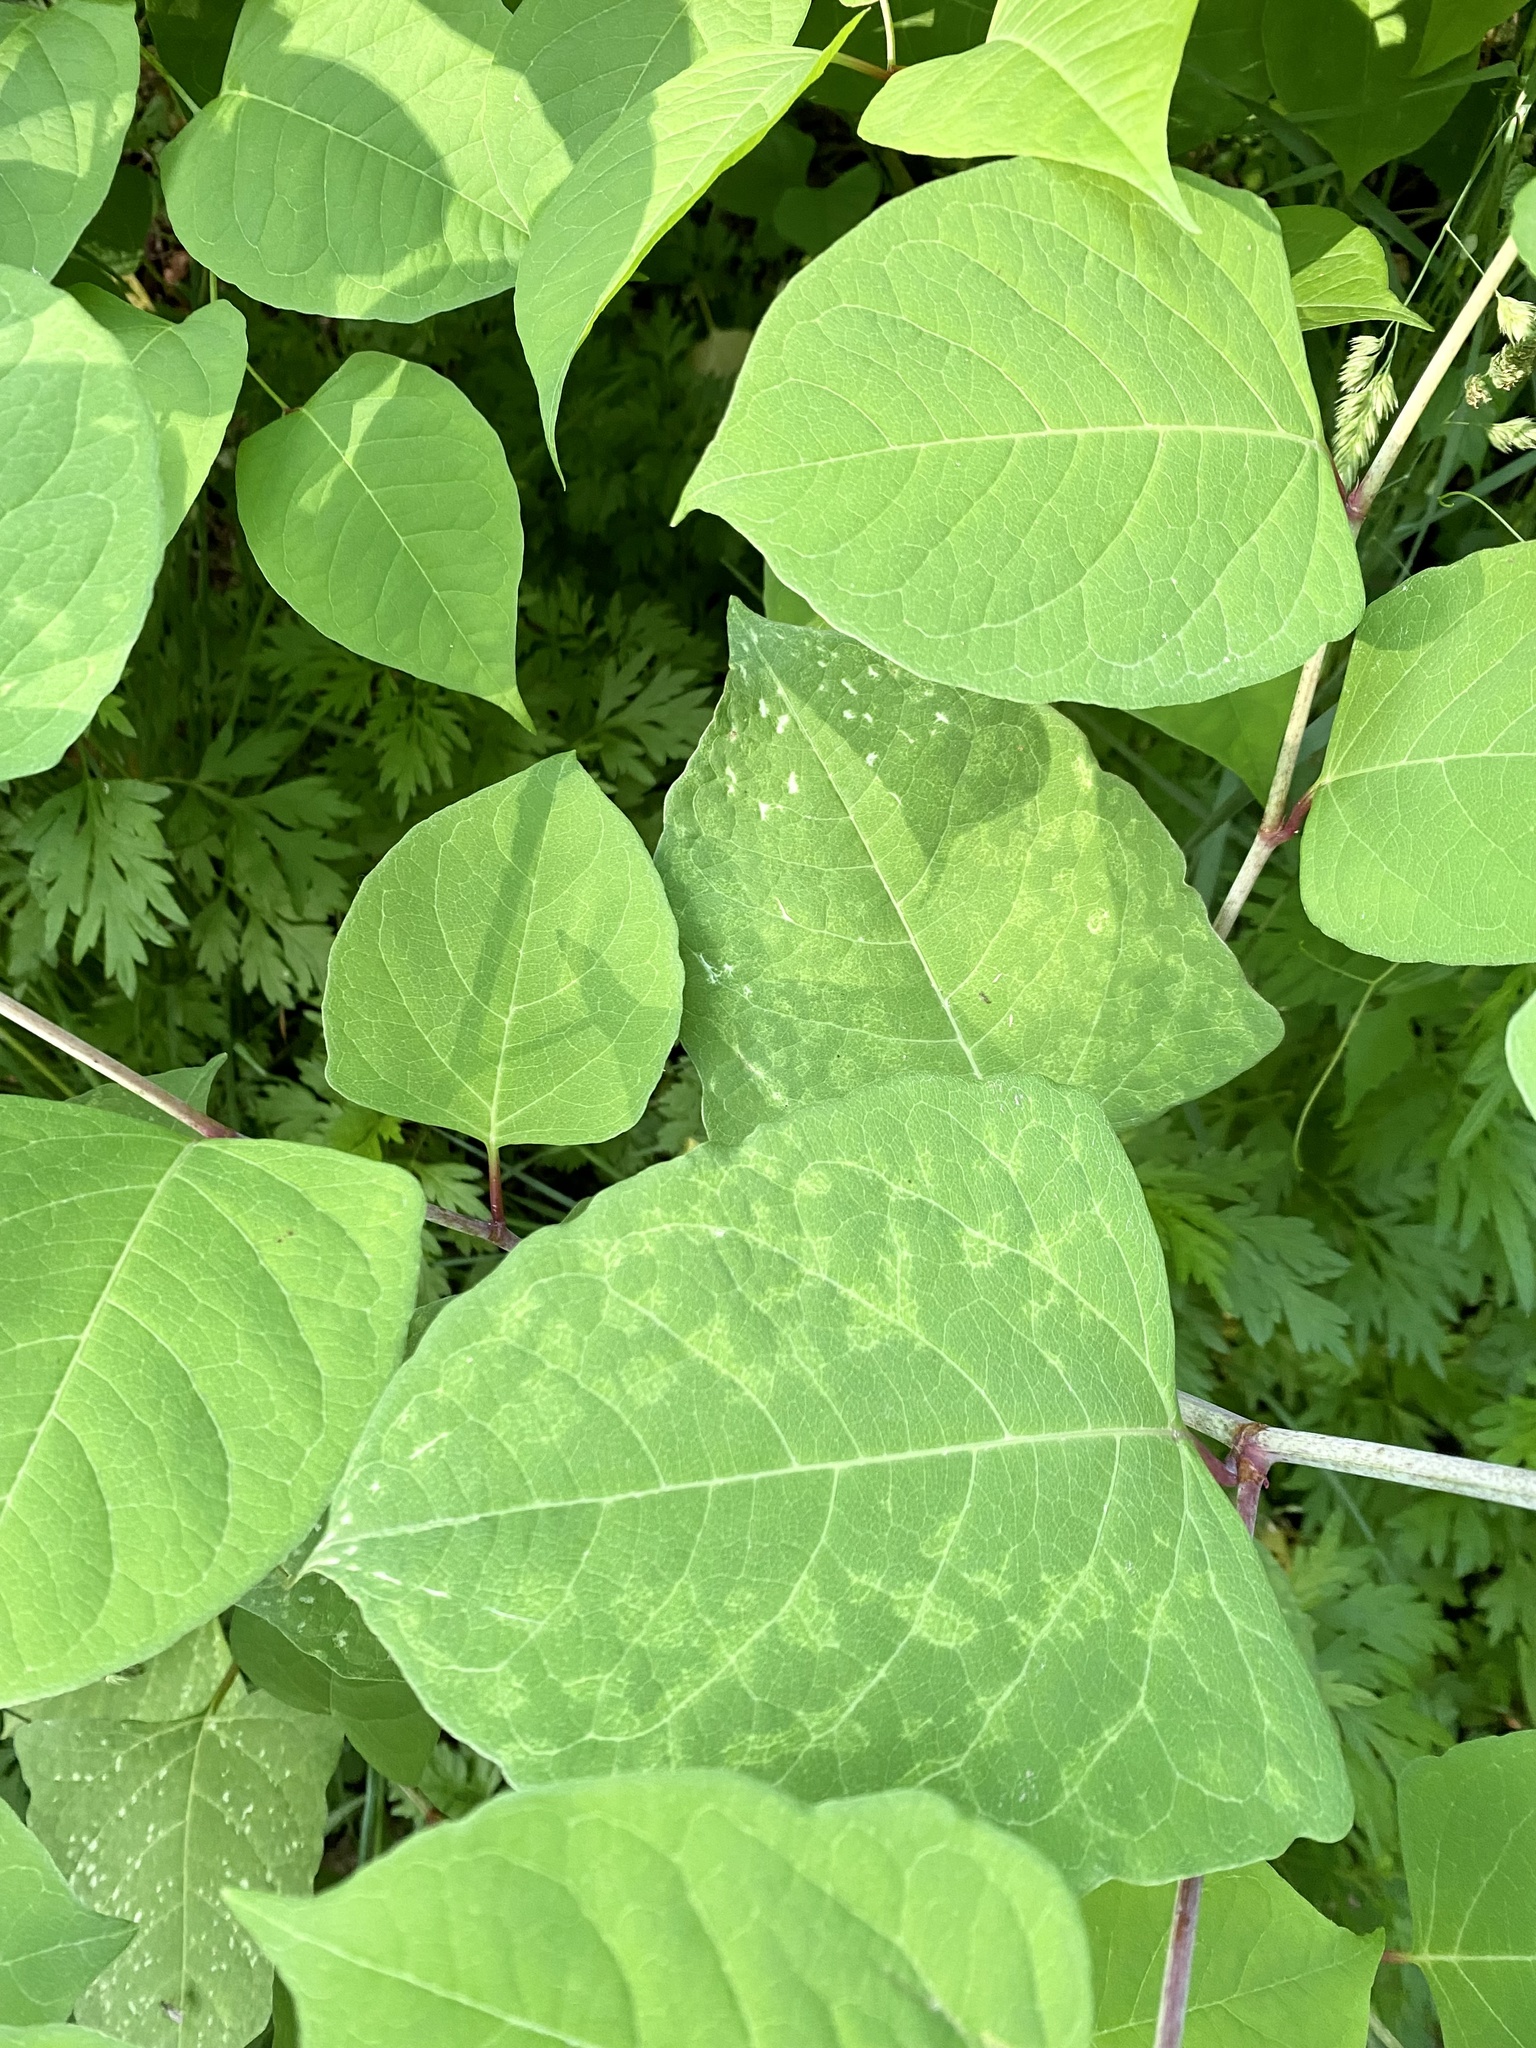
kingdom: Plantae
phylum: Tracheophyta
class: Magnoliopsida
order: Caryophyllales
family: Polygonaceae
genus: Reynoutria
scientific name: Reynoutria japonica
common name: Japanese knotweed
